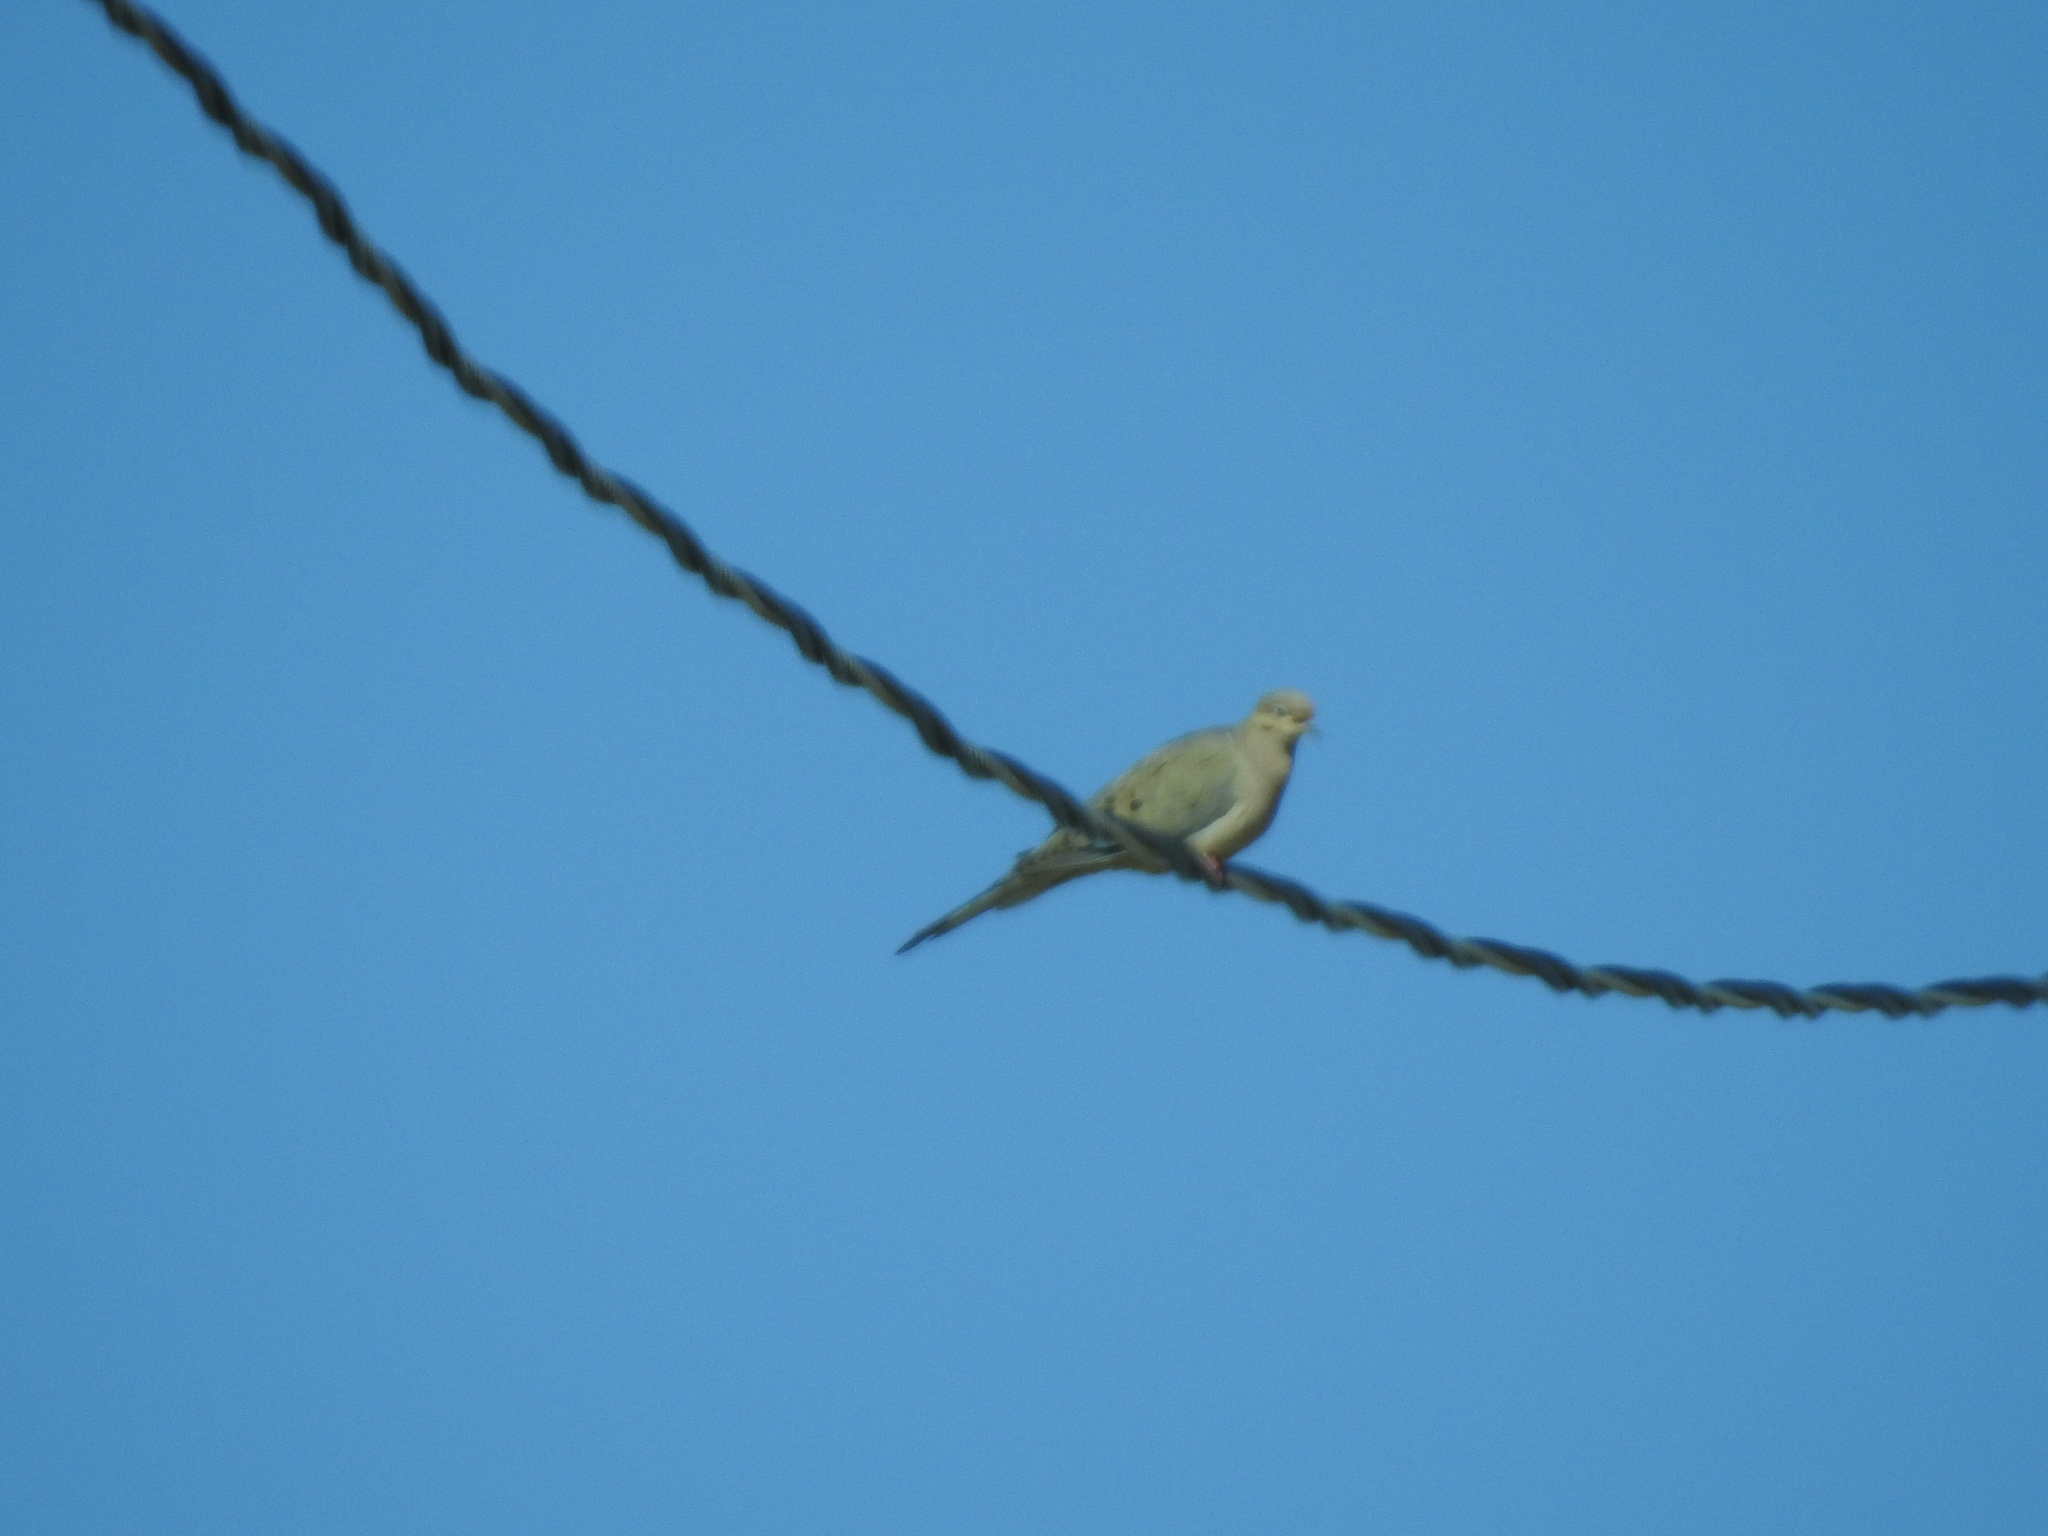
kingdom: Animalia
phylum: Chordata
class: Aves
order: Columbiformes
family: Columbidae
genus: Zenaida
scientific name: Zenaida macroura
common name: Mourning dove
